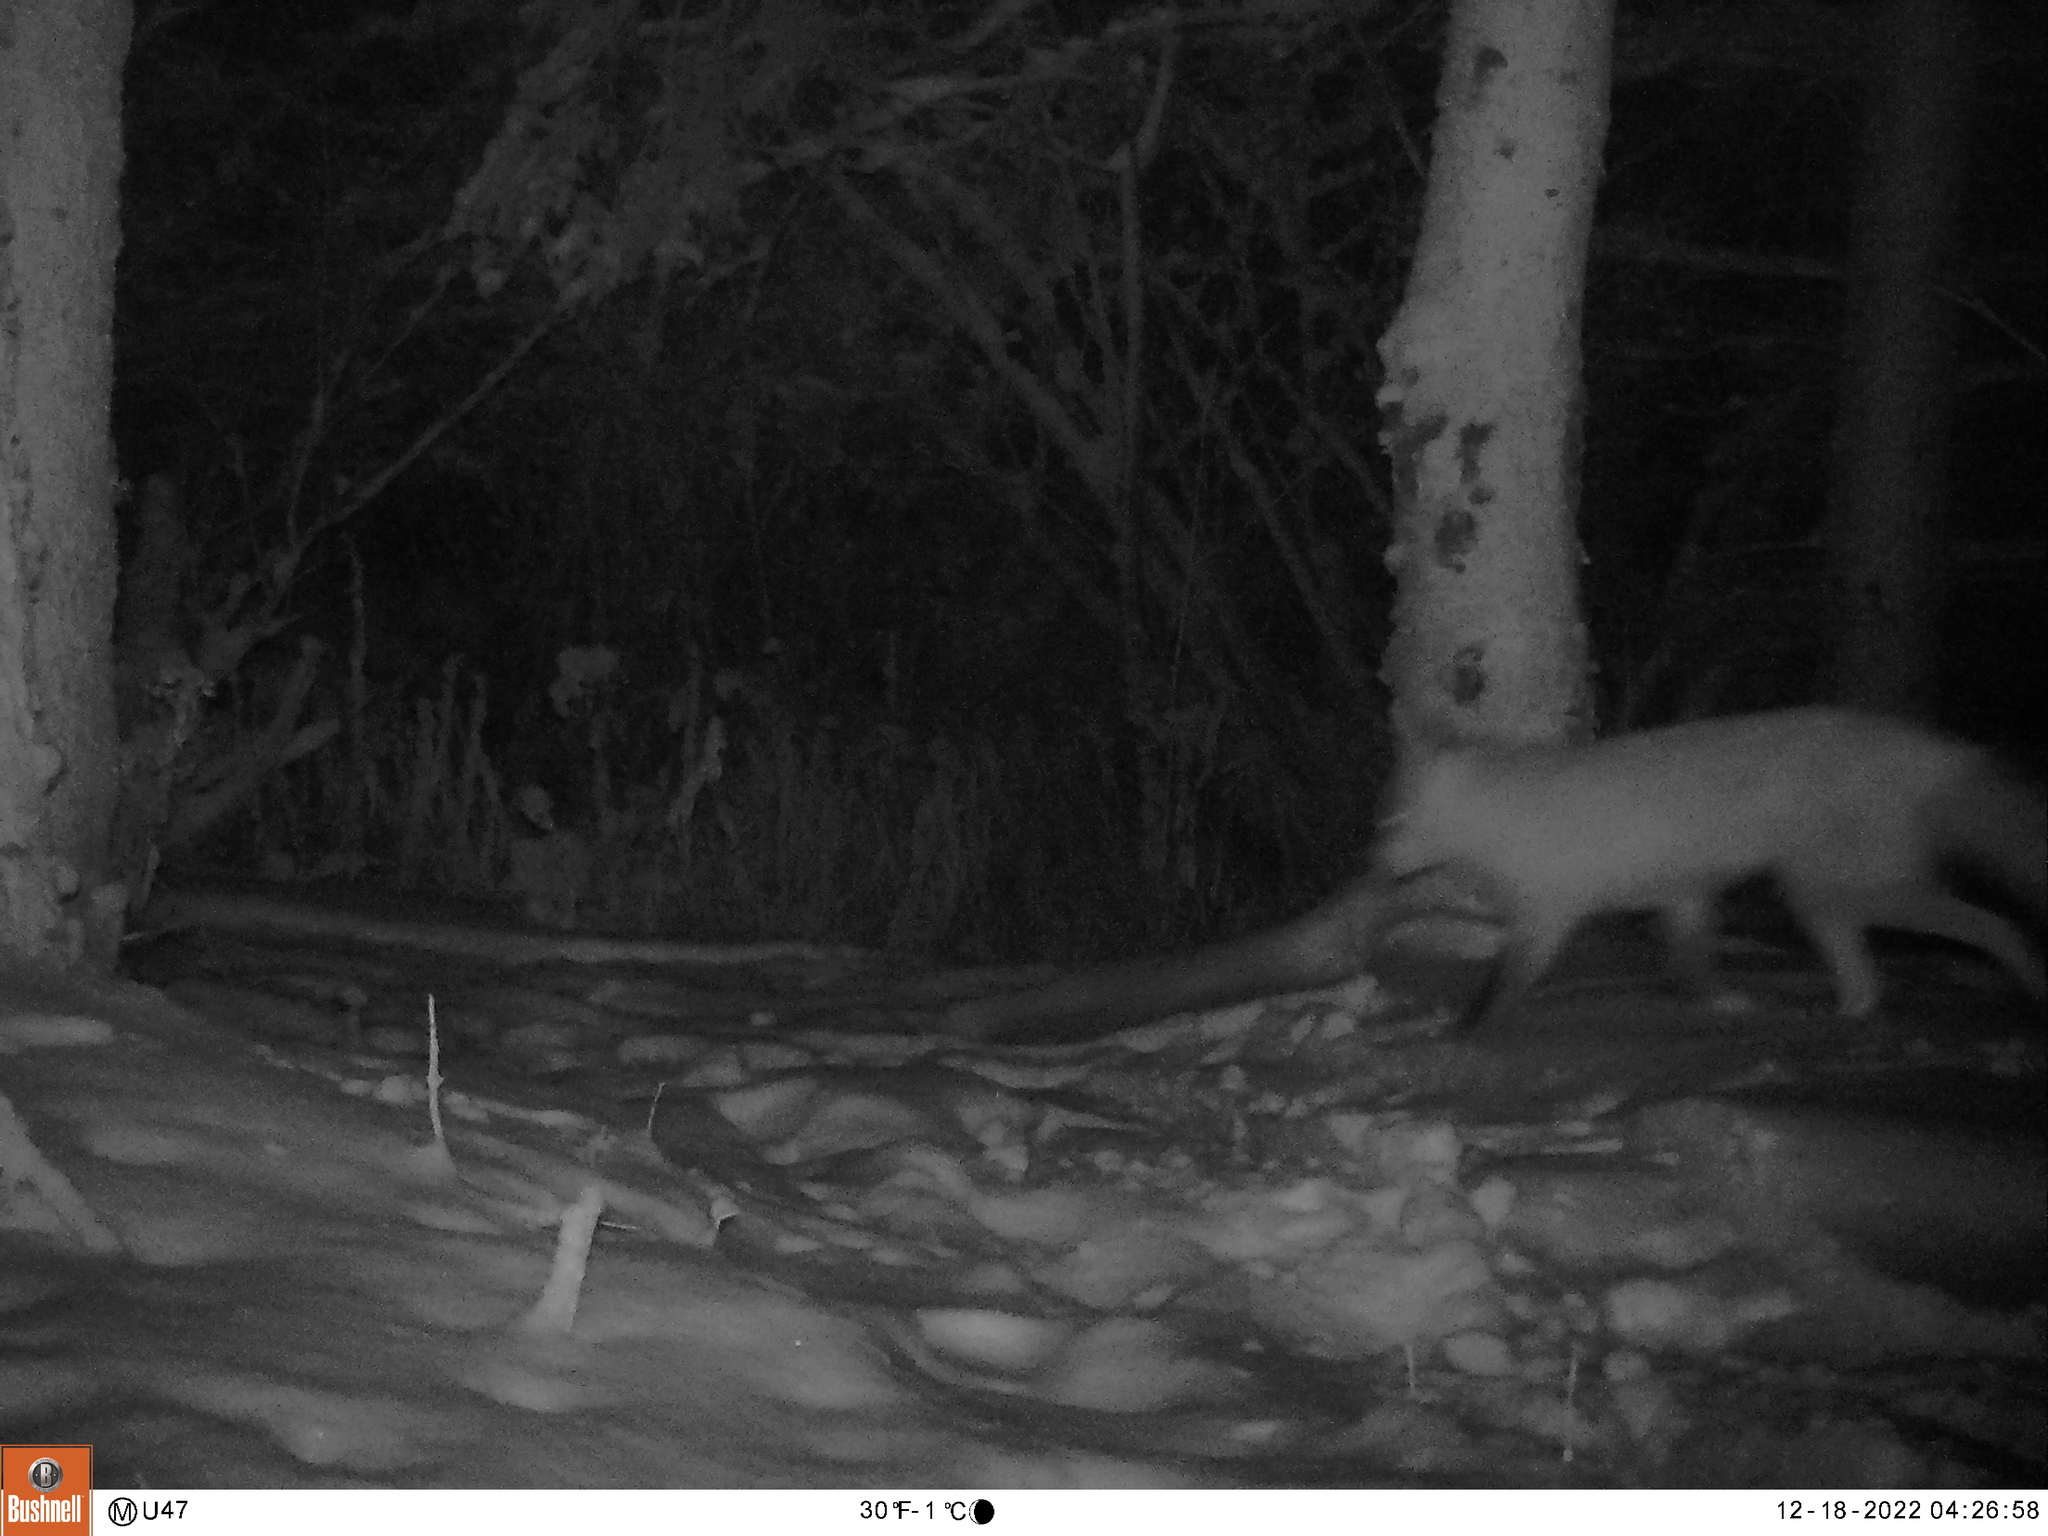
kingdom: Animalia
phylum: Chordata
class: Mammalia
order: Carnivora
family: Canidae
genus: Vulpes
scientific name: Vulpes vulpes
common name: Red fox
